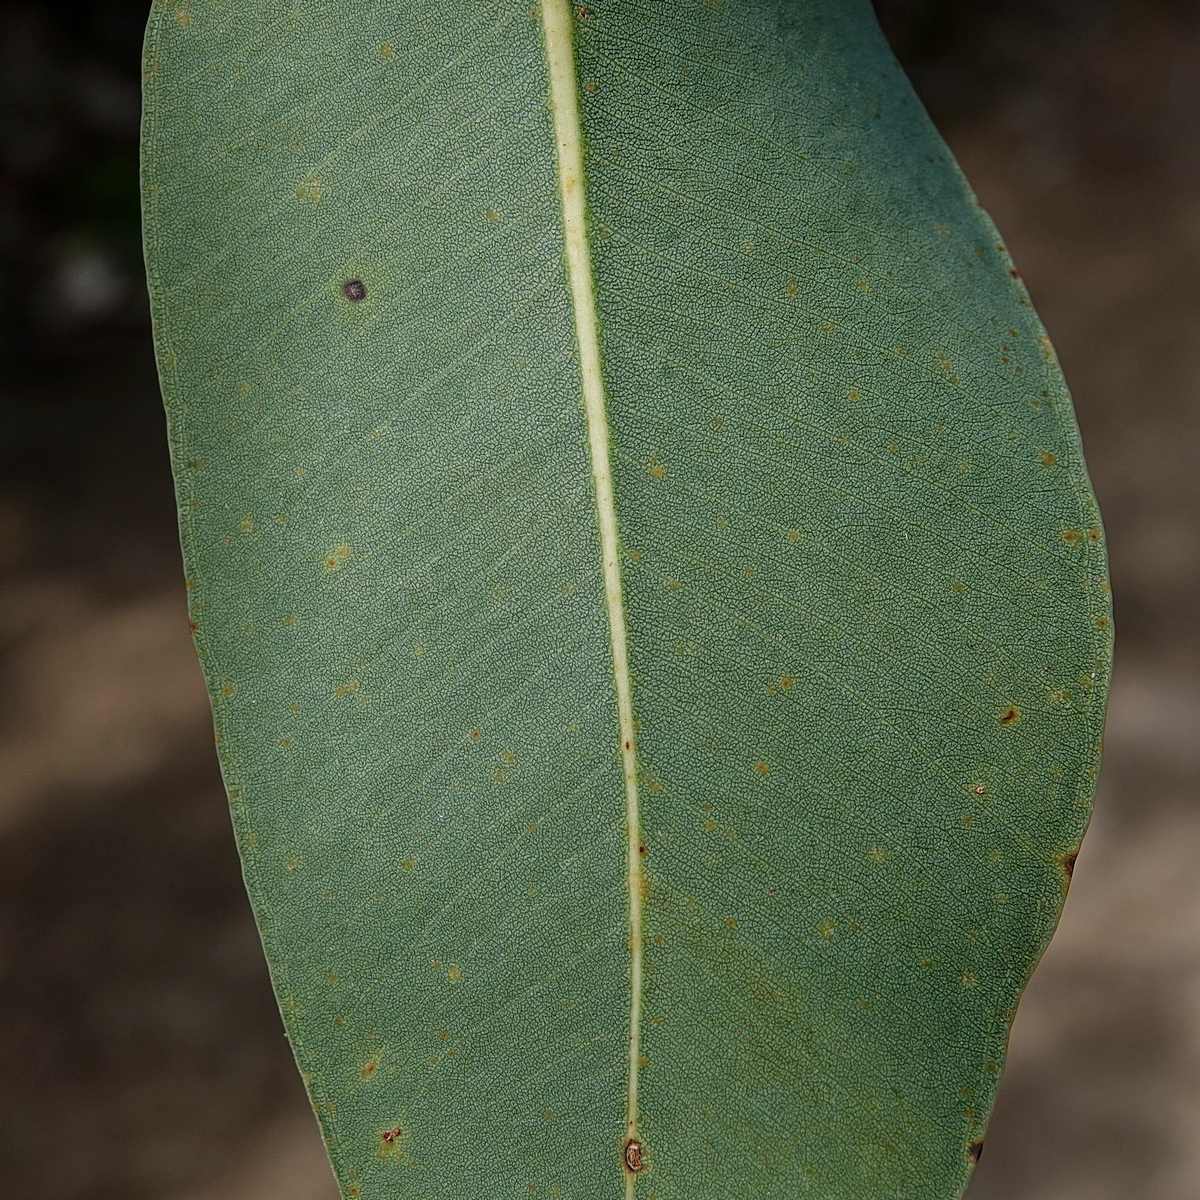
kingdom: Plantae
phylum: Tracheophyta
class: Magnoliopsida
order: Myrtales
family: Myrtaceae
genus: Eucalyptus
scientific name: Eucalyptus botryoides
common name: Bangalay
